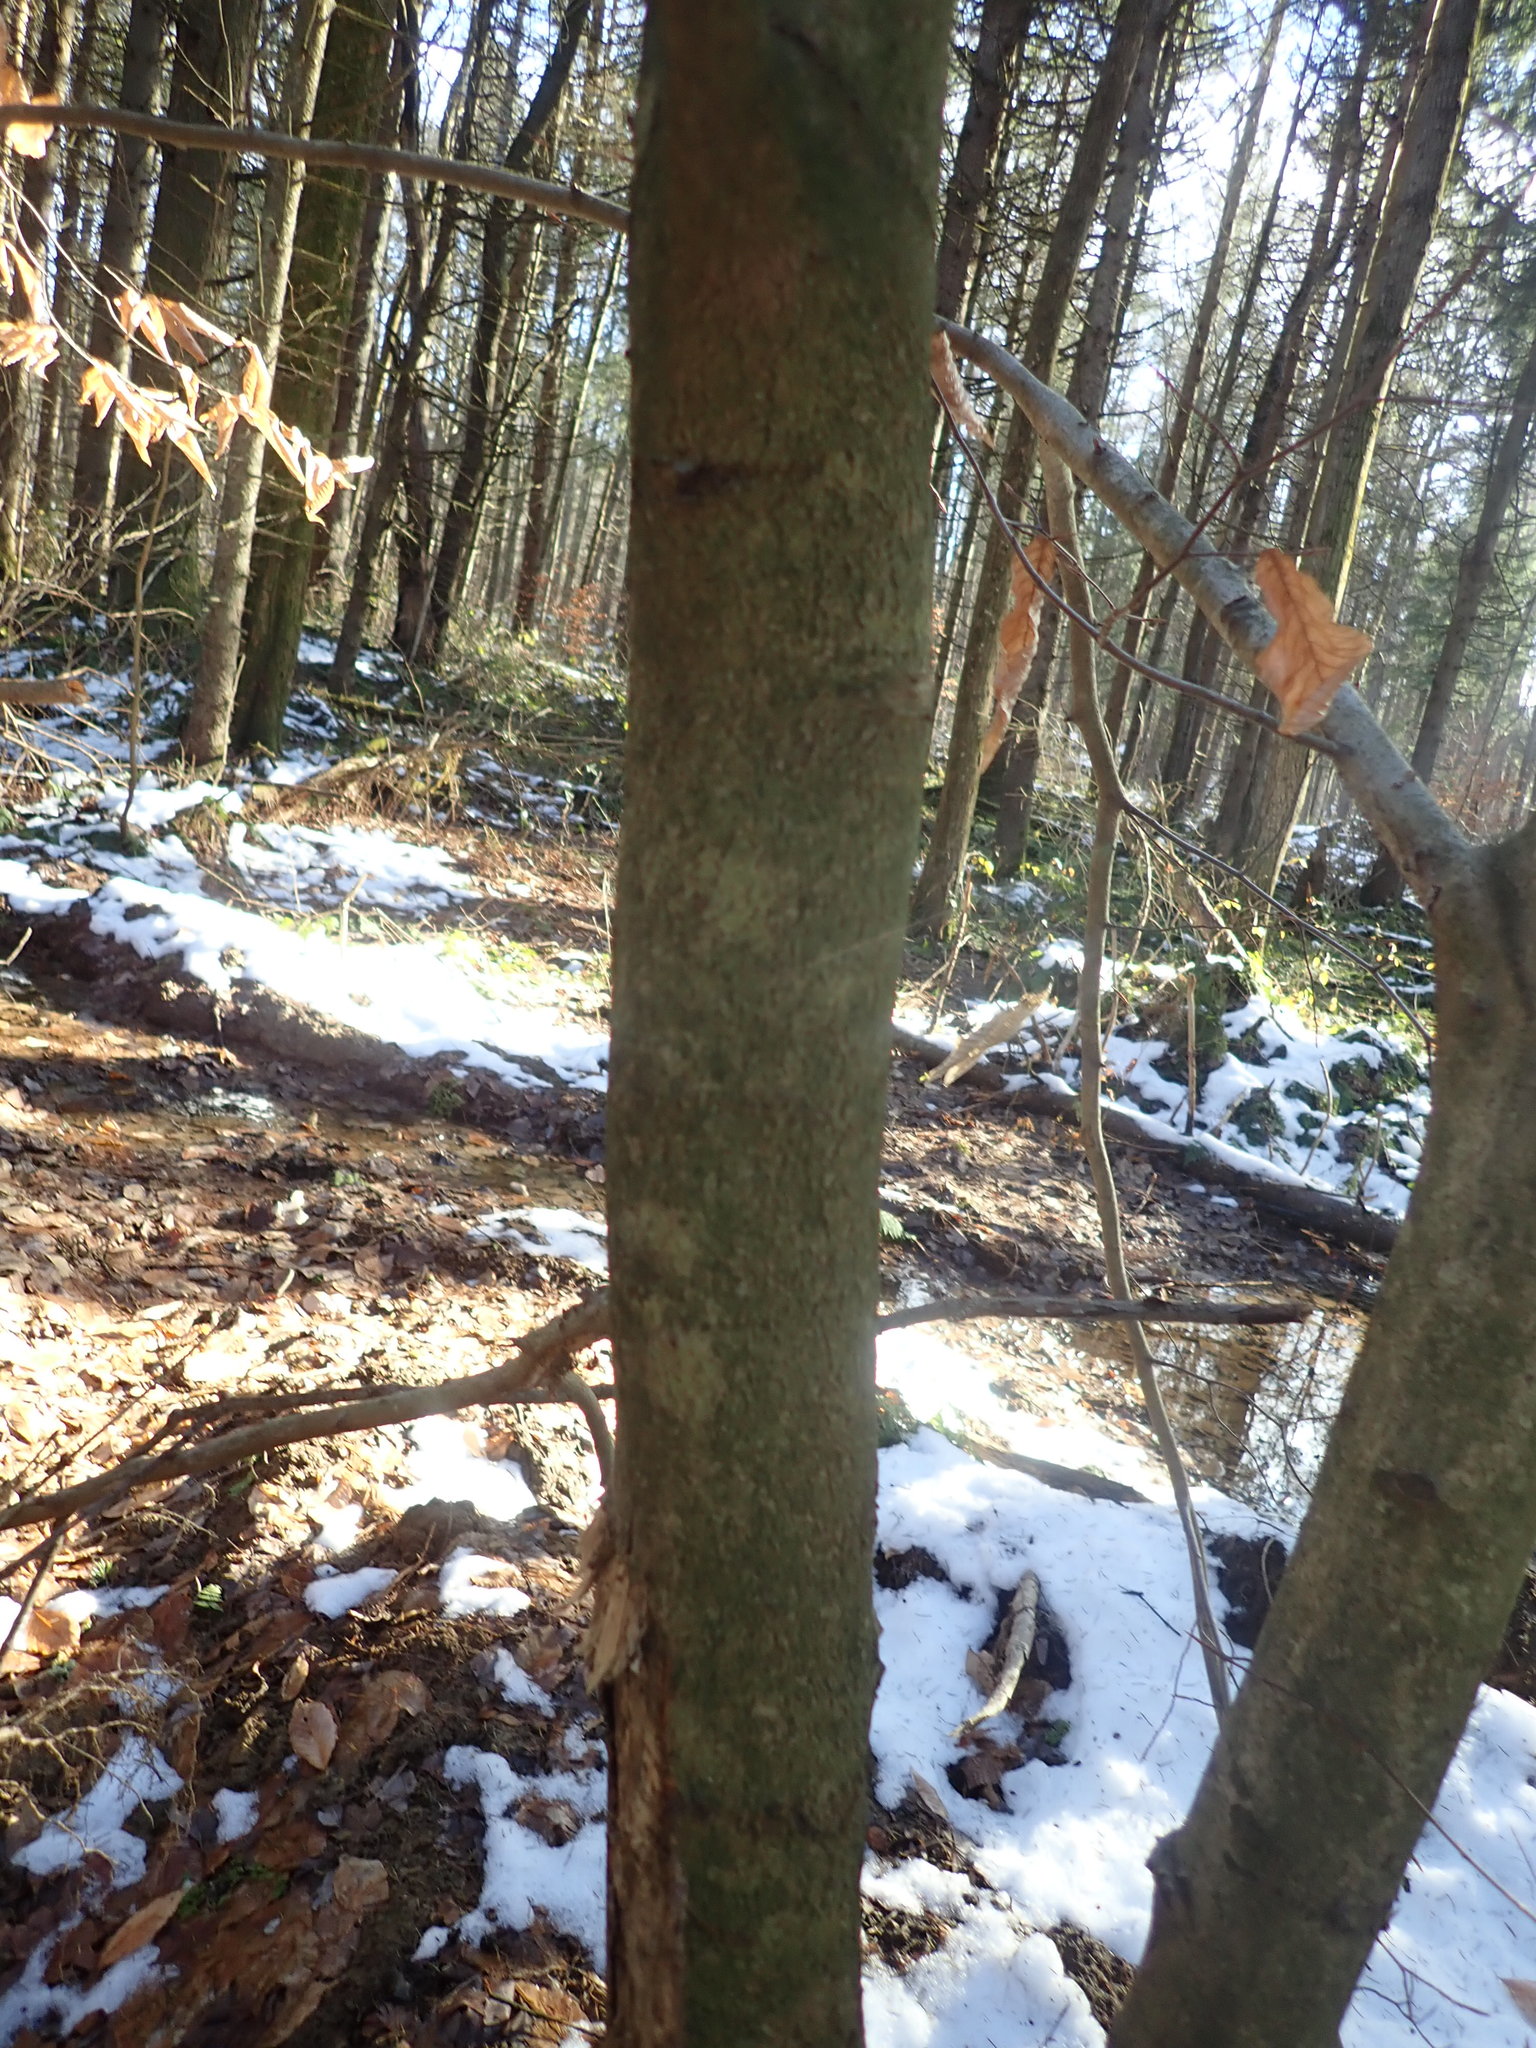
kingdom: Plantae
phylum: Tracheophyta
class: Magnoliopsida
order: Fagales
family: Fagaceae
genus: Fagus
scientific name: Fagus grandifolia
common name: American beech
